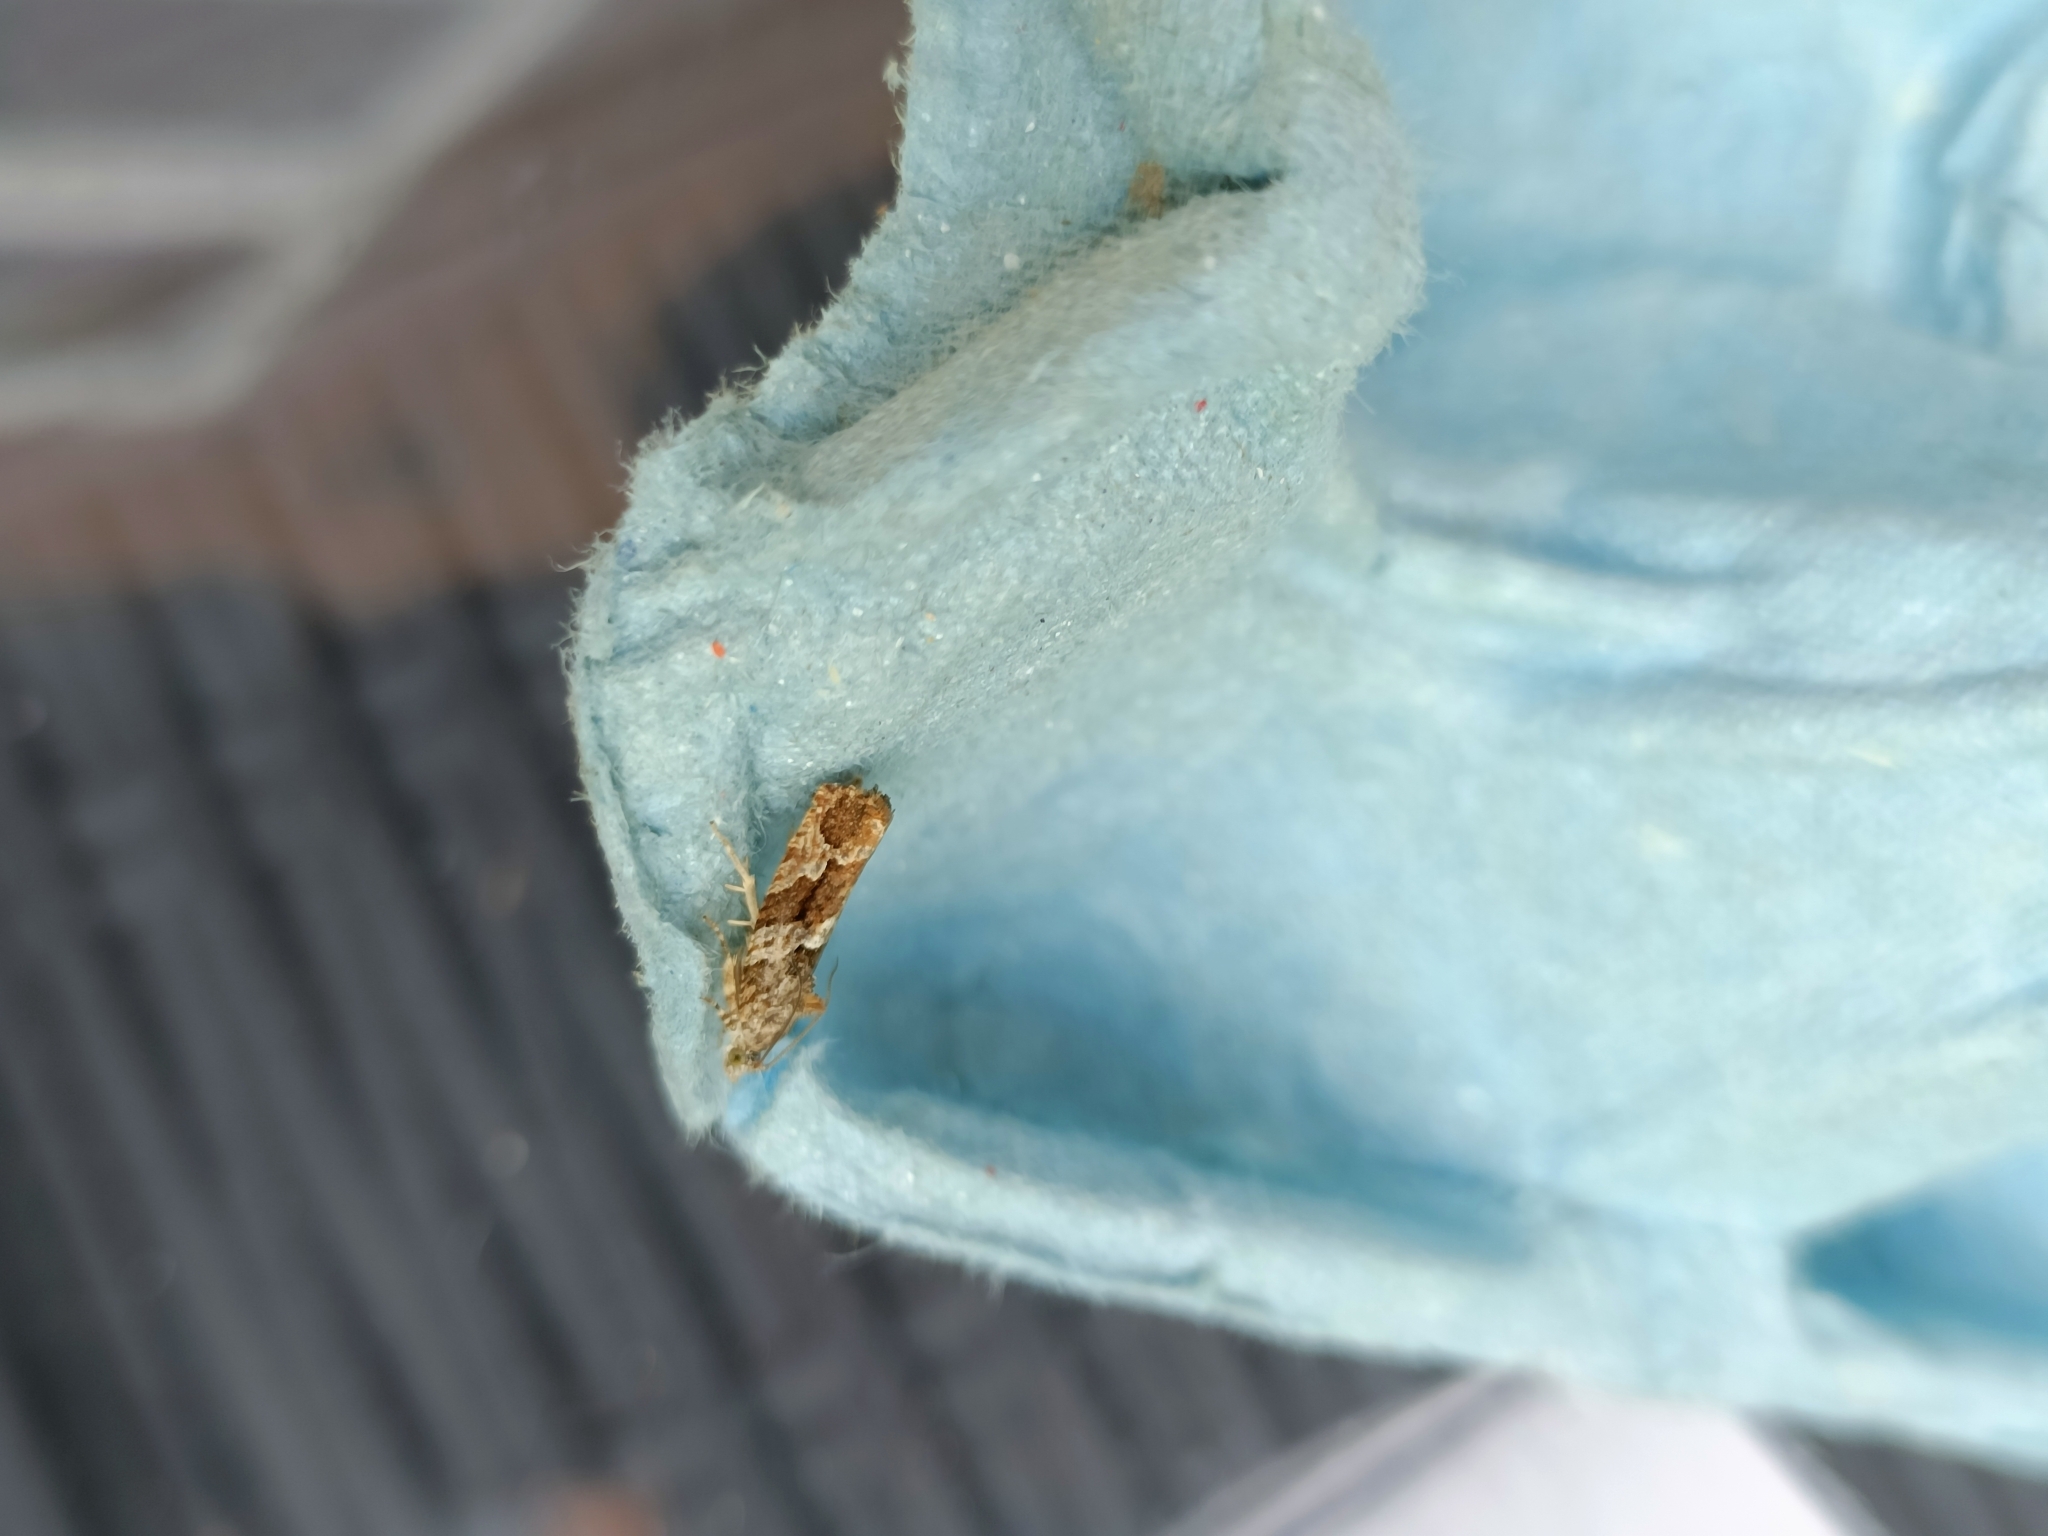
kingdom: Animalia
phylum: Arthropoda
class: Insecta
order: Lepidoptera
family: Tortricidae
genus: Eudemis
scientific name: Eudemis profundana
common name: Diamond-back marble
